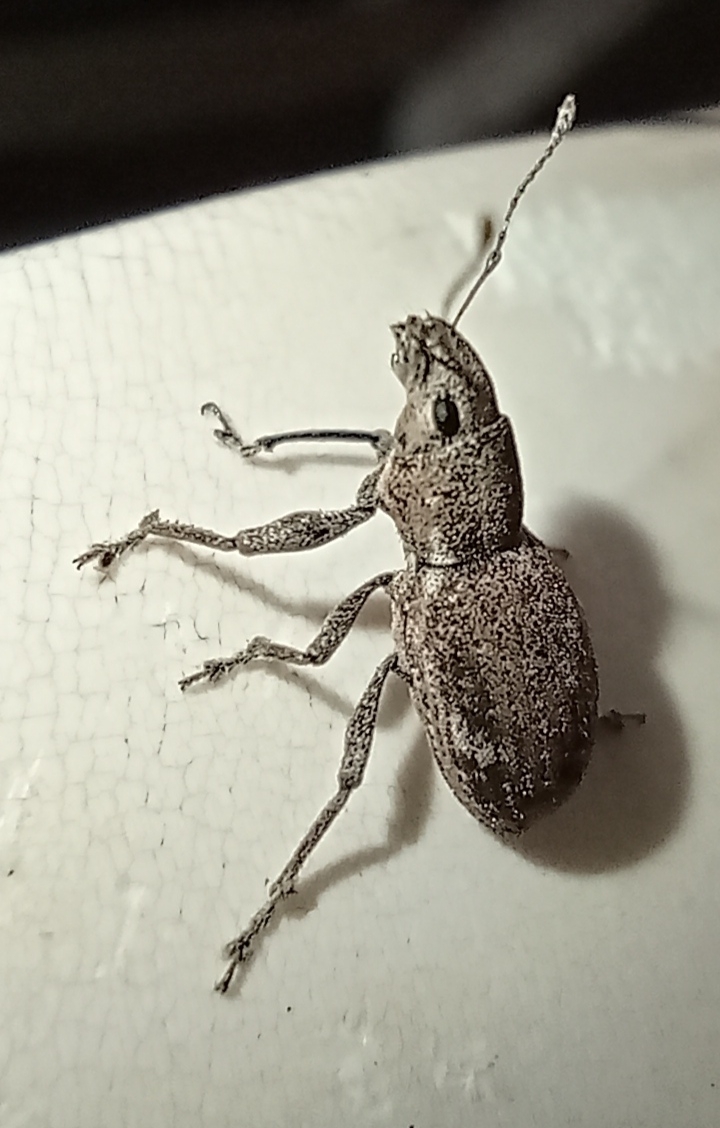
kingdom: Animalia
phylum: Arthropoda
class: Insecta
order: Coleoptera
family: Curculionidae
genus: Naupactus
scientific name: Naupactus cervinus
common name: Fuller rose beetle
